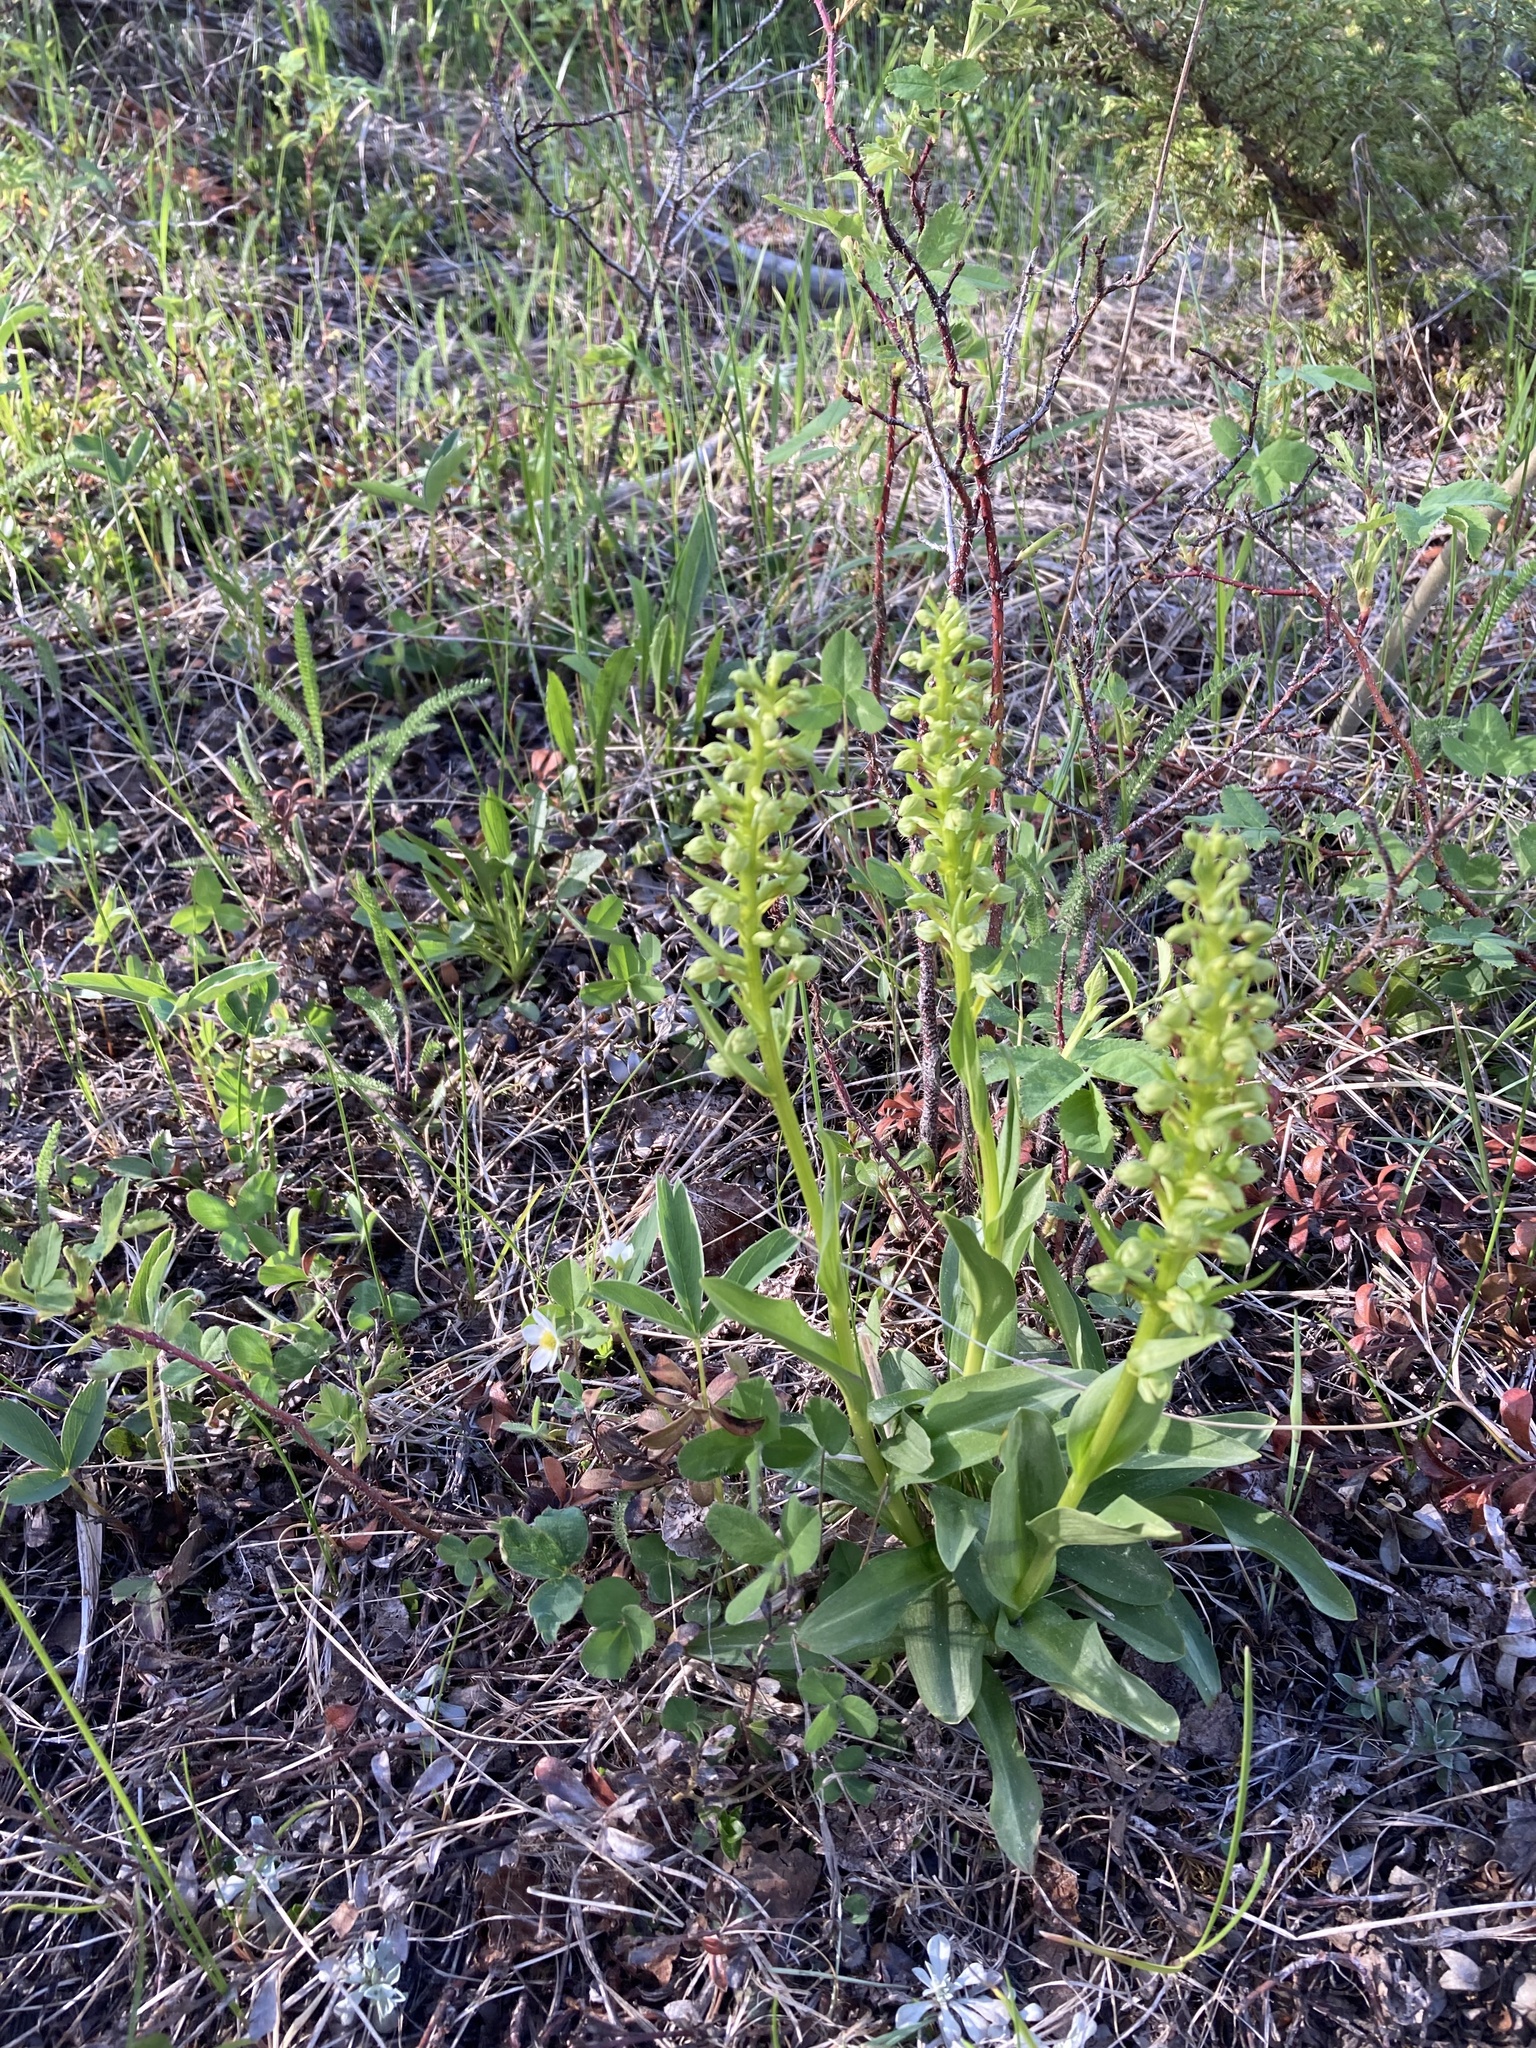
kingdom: Plantae
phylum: Tracheophyta
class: Liliopsida
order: Asparagales
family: Orchidaceae
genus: Dactylorhiza
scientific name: Dactylorhiza viridis
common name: Longbract frog orchid
